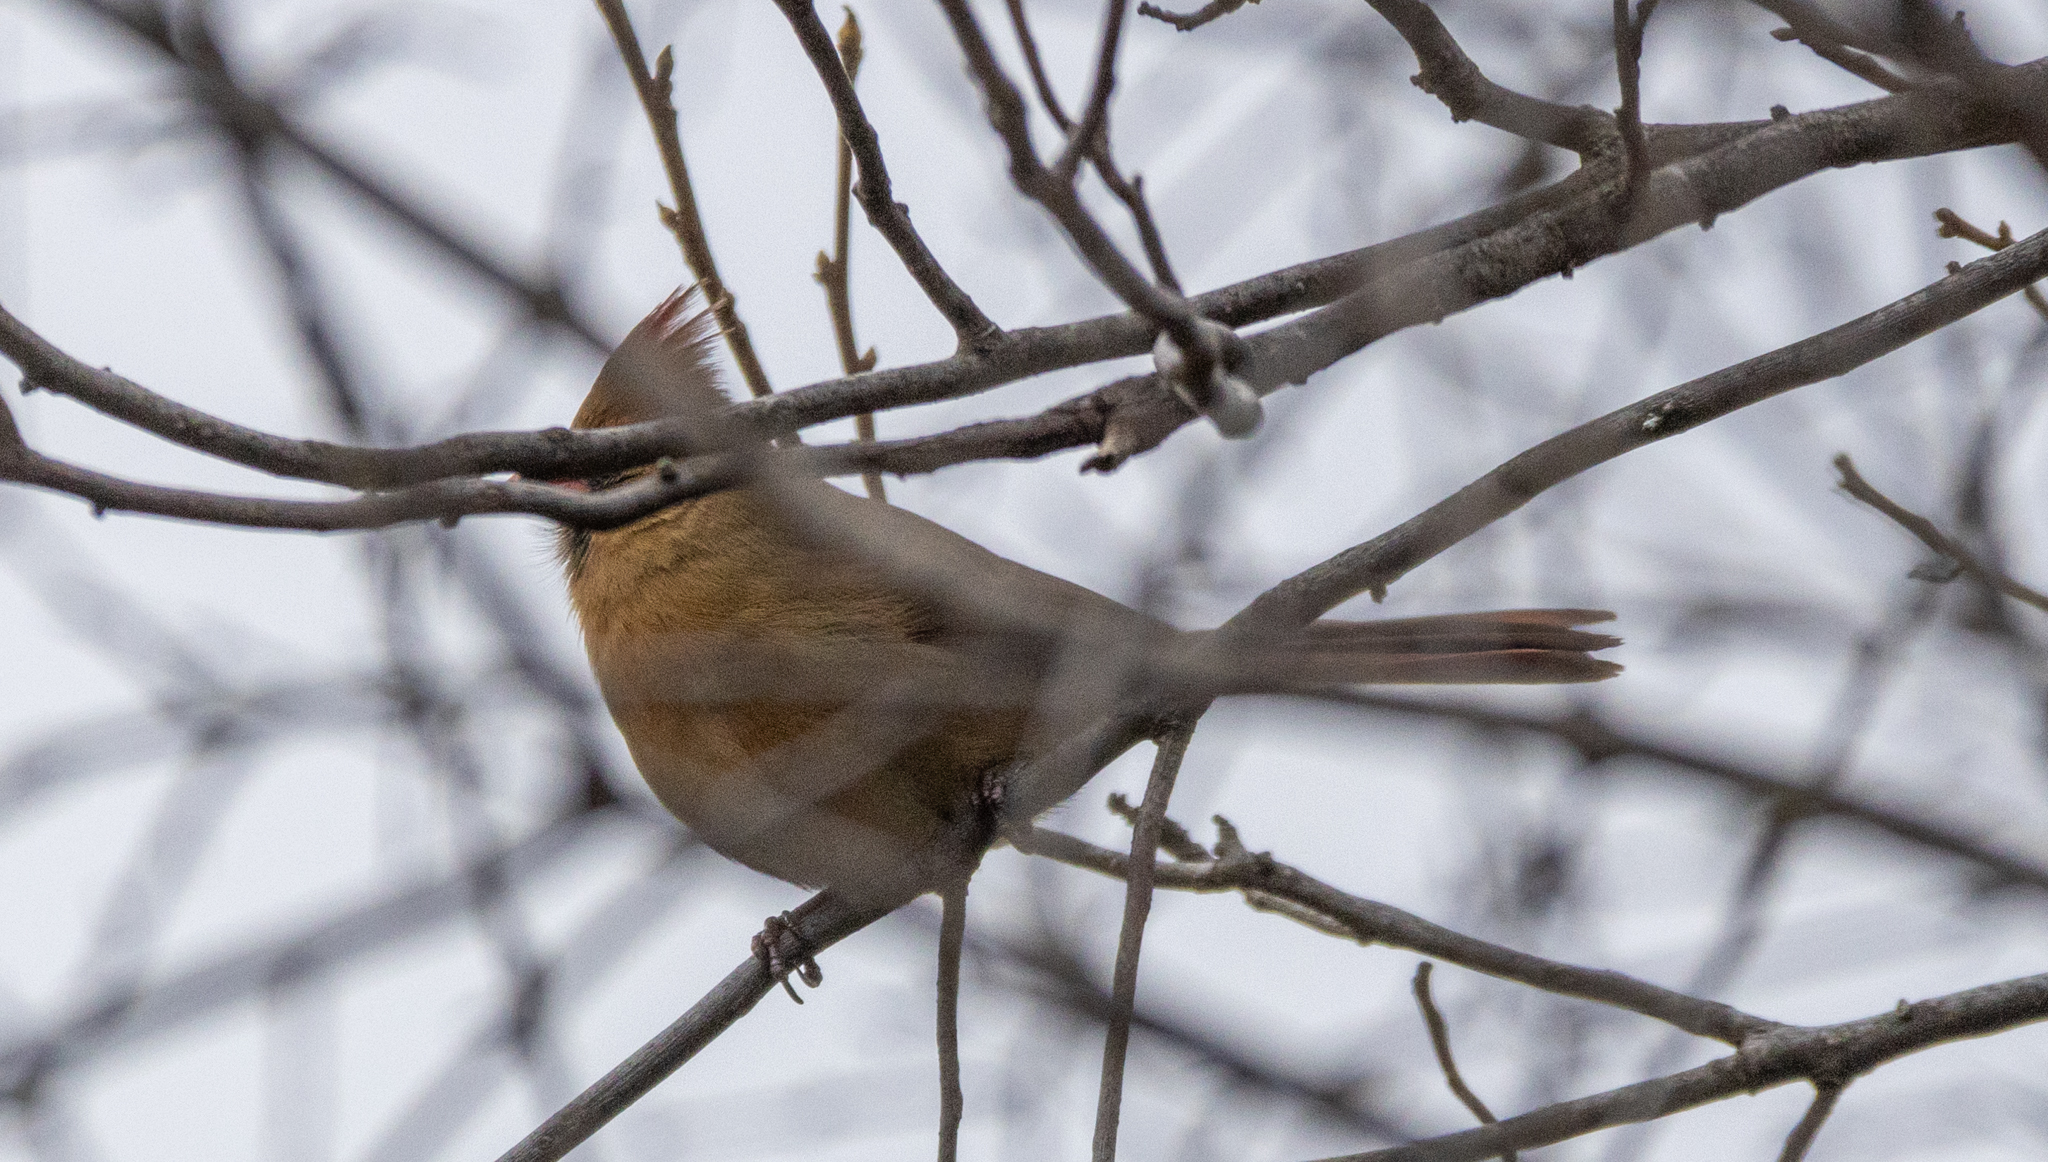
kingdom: Animalia
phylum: Chordata
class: Aves
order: Passeriformes
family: Cardinalidae
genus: Cardinalis
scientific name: Cardinalis cardinalis
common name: Northern cardinal
